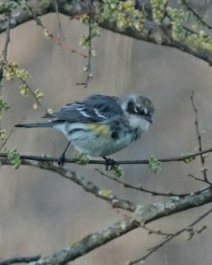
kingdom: Animalia
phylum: Chordata
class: Aves
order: Passeriformes
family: Parulidae
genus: Setophaga
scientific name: Setophaga coronata
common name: Myrtle warbler
